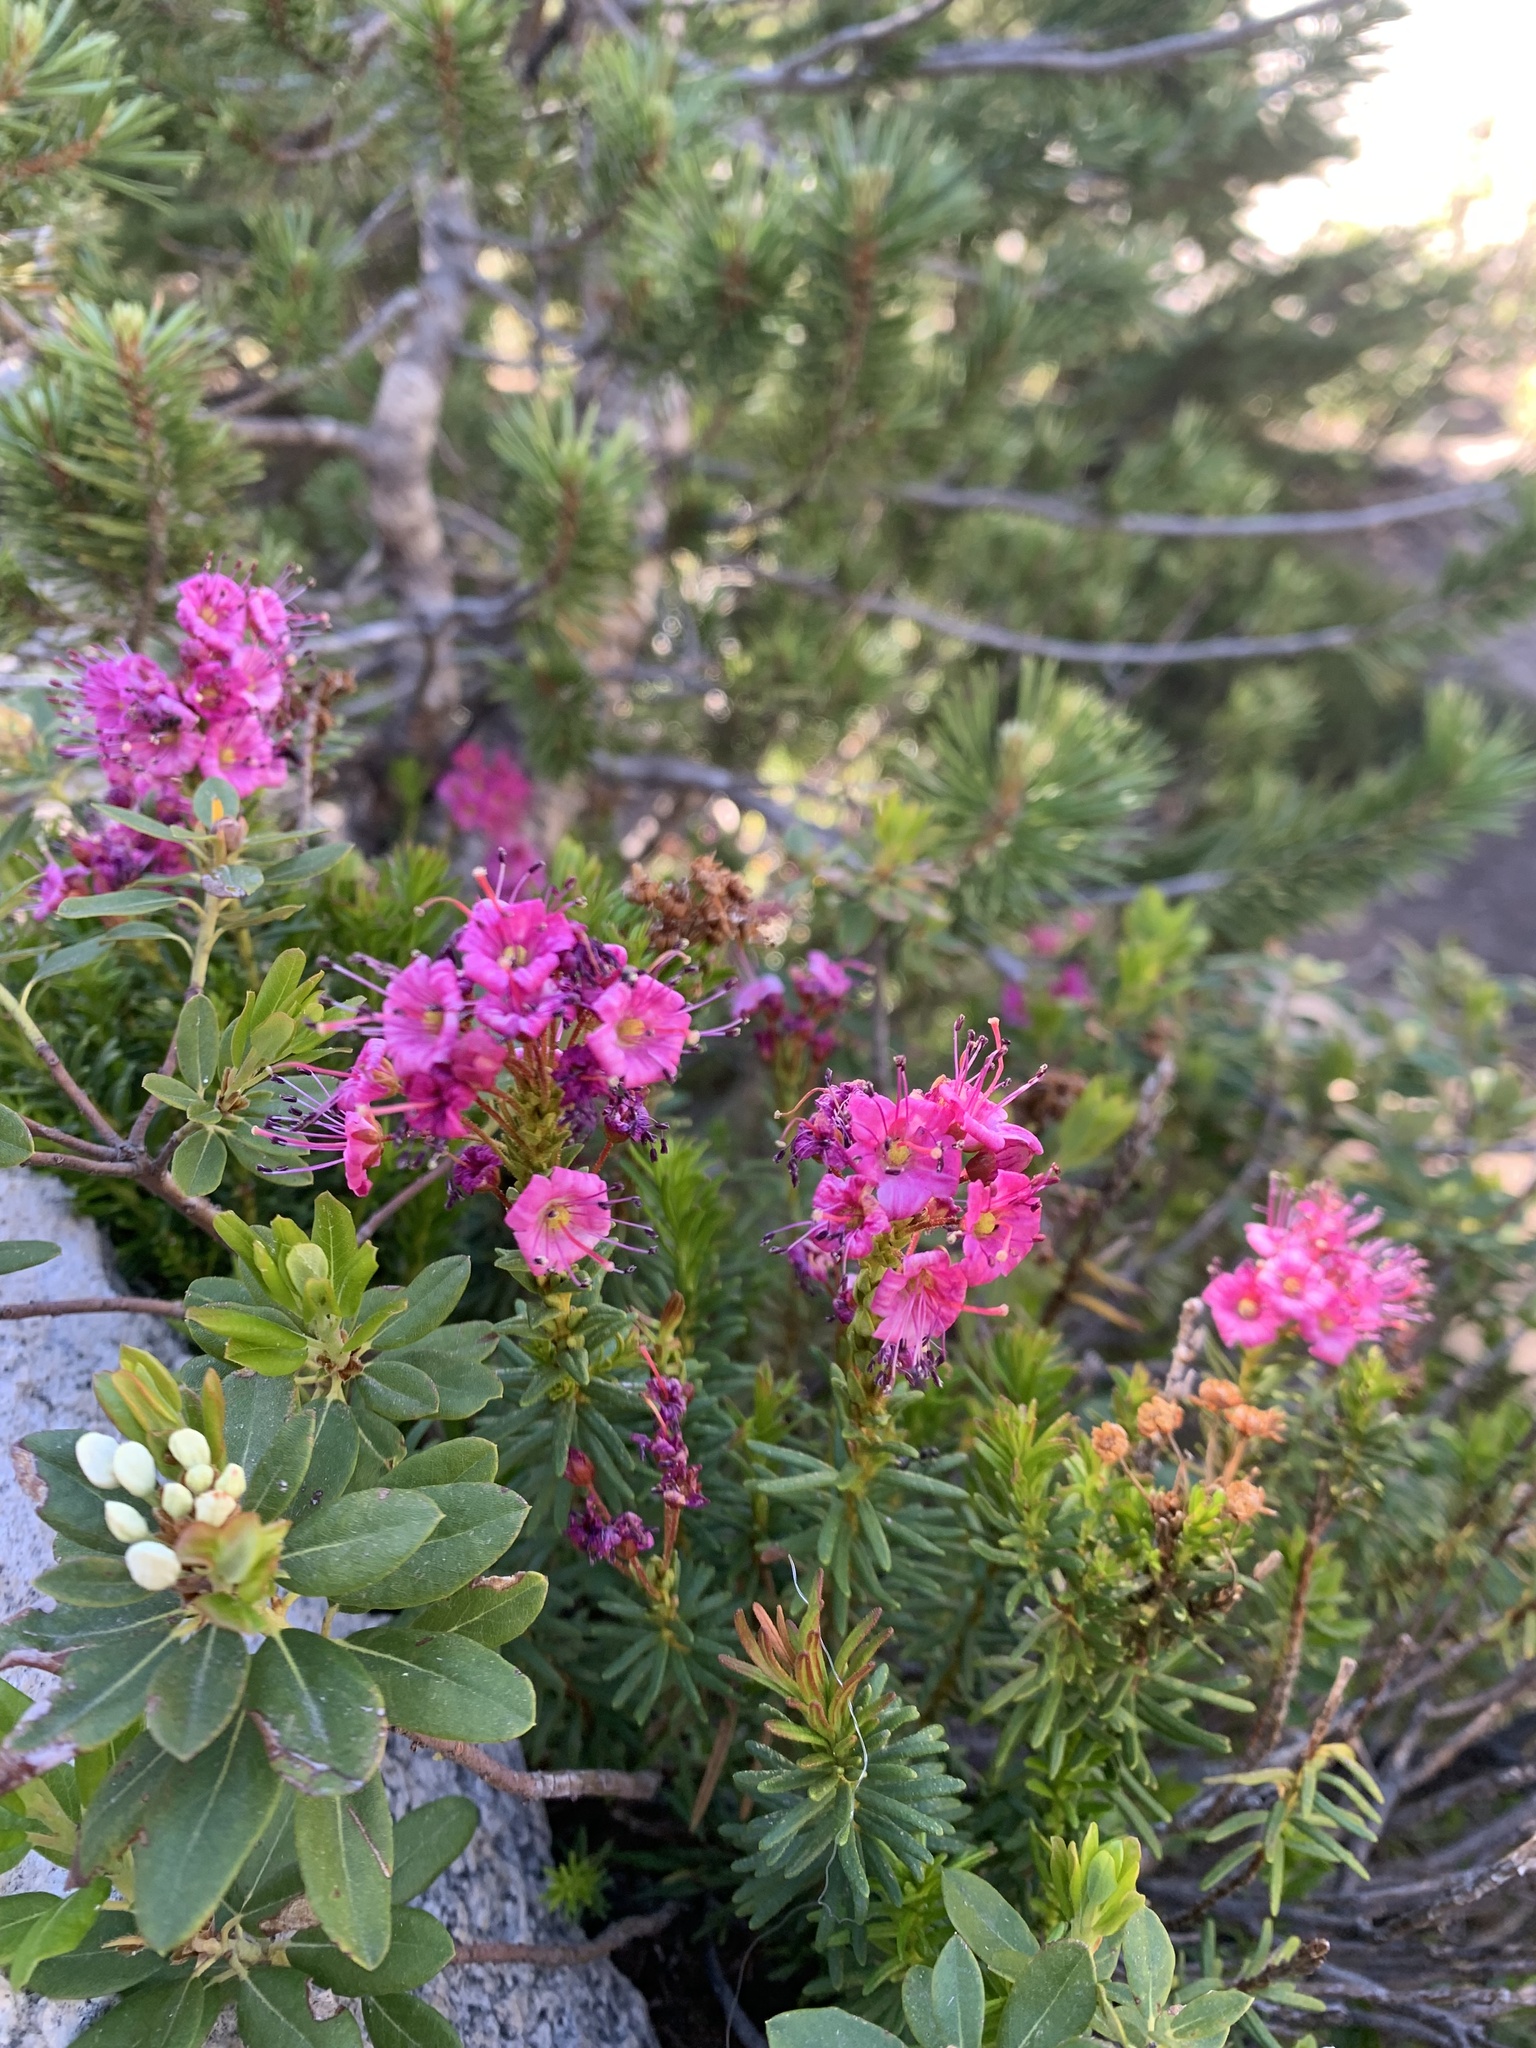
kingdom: Plantae
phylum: Tracheophyta
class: Magnoliopsida
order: Ericales
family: Ericaceae
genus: Phyllodoce
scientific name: Phyllodoce breweri
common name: Brewer's mountain-heather
